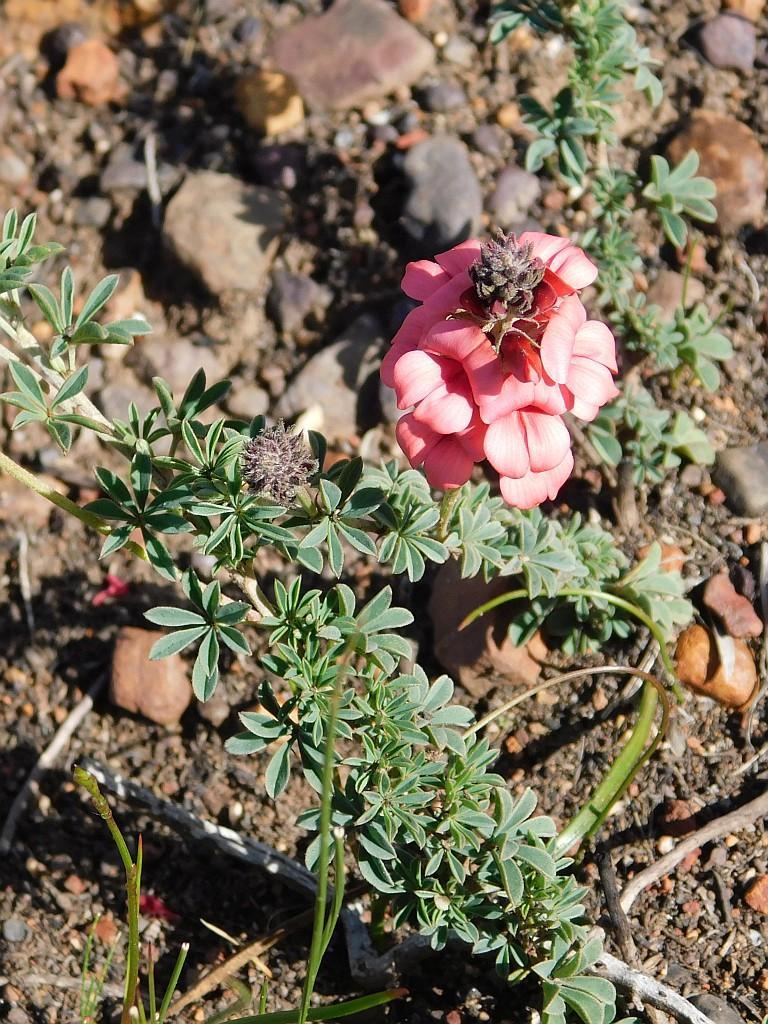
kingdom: Plantae
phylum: Tracheophyta
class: Magnoliopsida
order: Fabales
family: Fabaceae
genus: Indigofera
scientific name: Indigofera digitata
